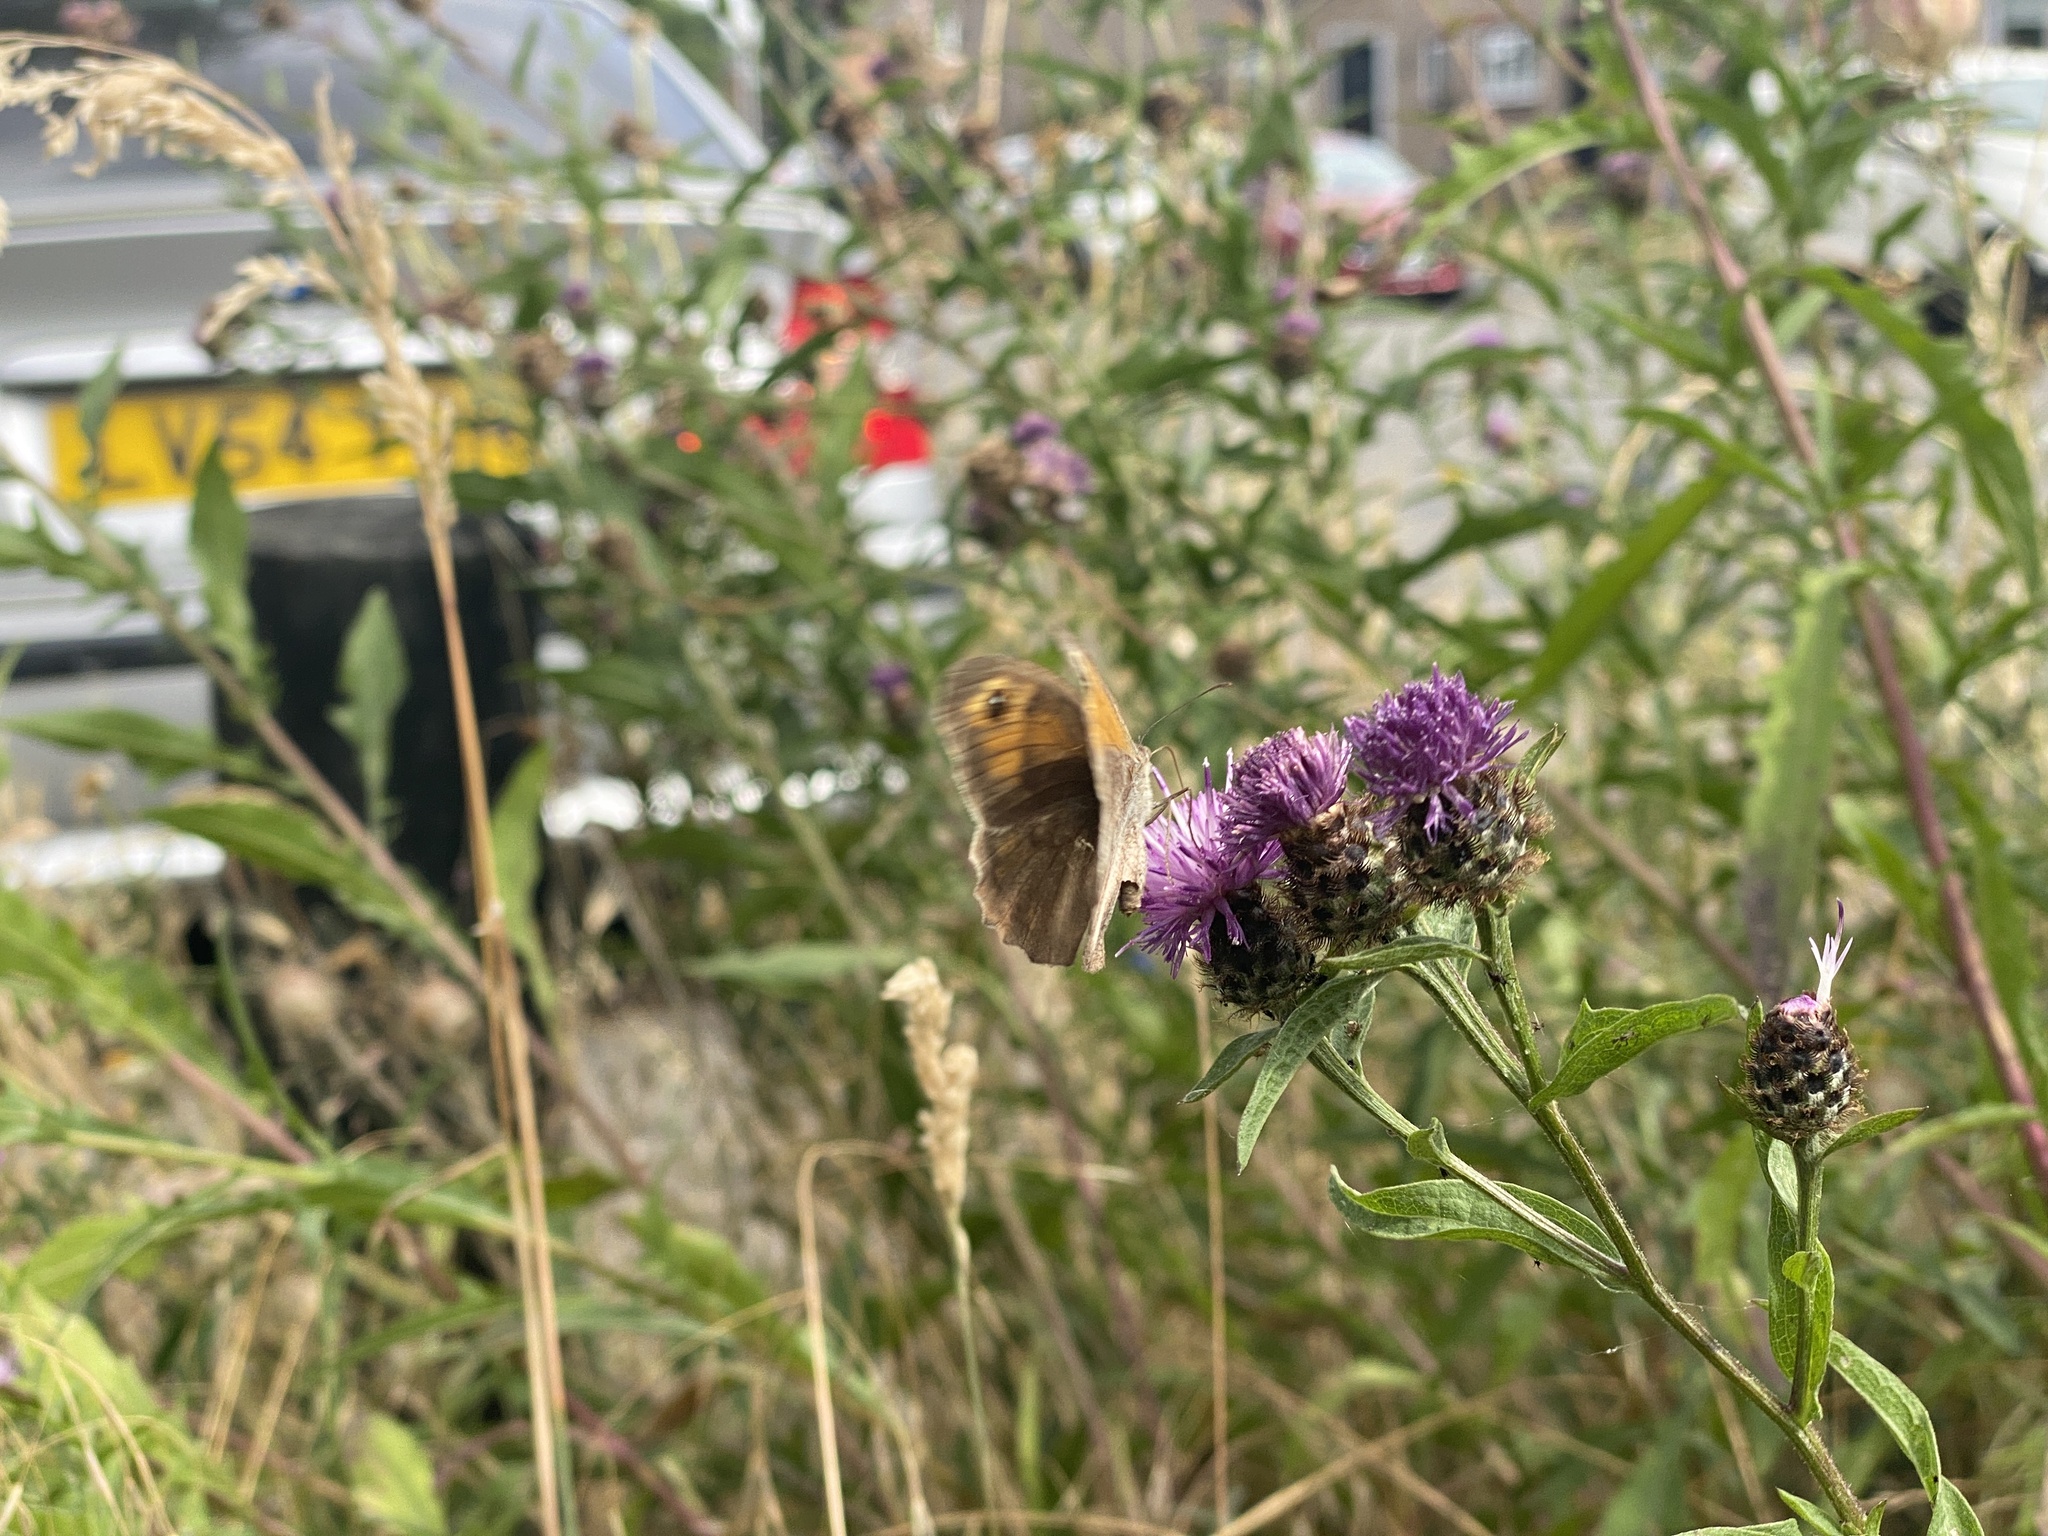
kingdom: Animalia
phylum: Arthropoda
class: Insecta
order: Lepidoptera
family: Nymphalidae
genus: Maniola
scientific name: Maniola jurtina
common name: Meadow brown
